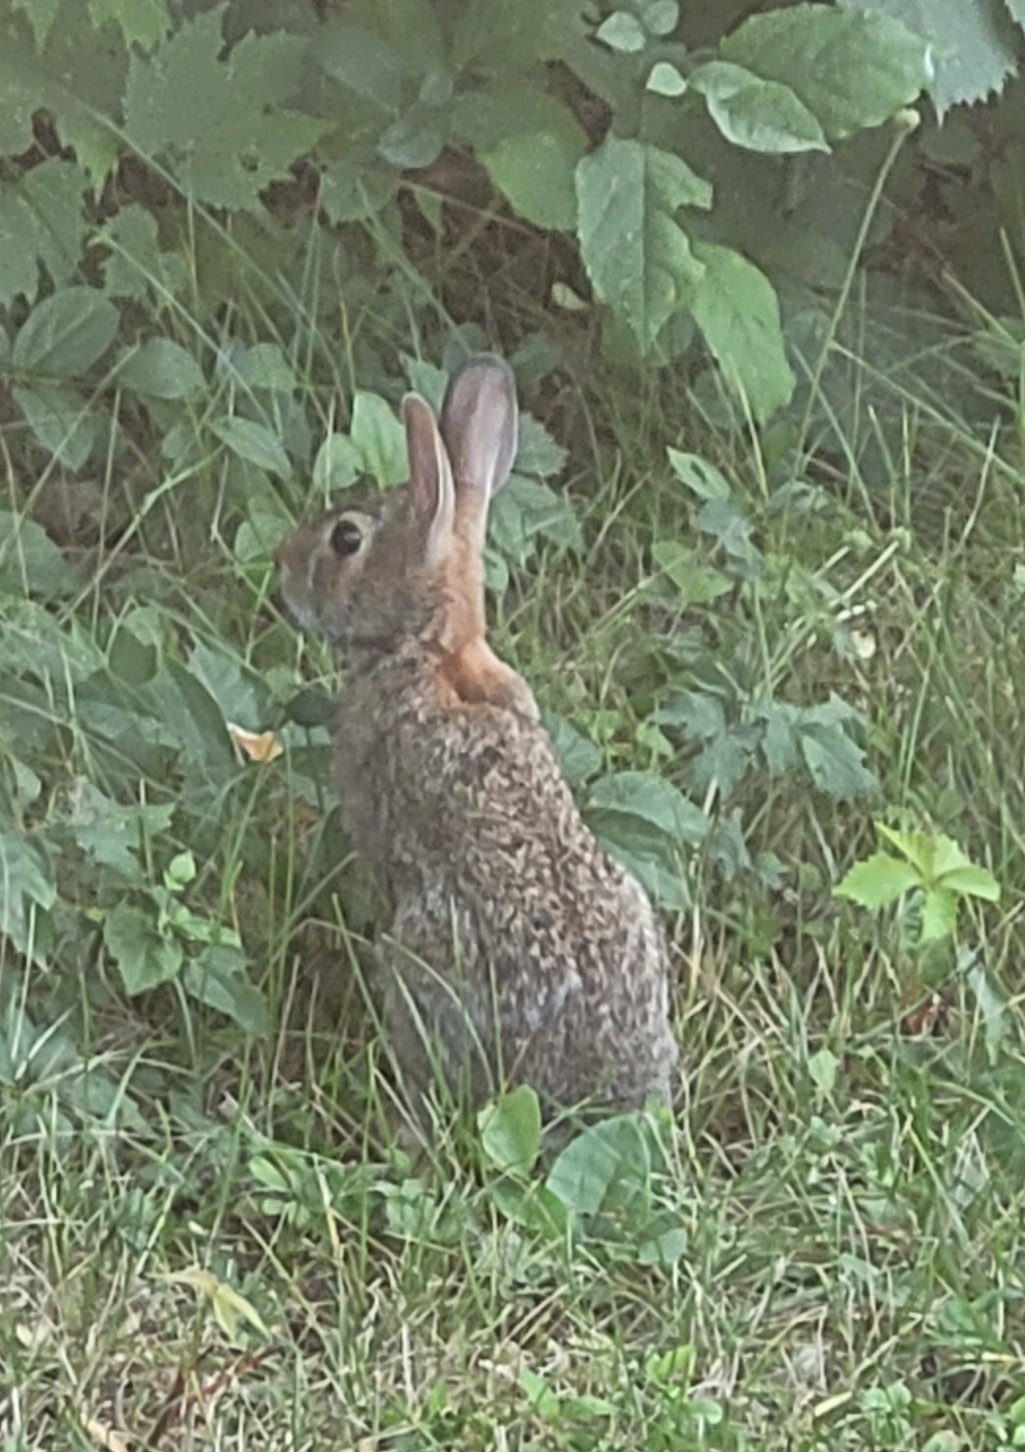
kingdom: Animalia
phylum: Chordata
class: Mammalia
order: Lagomorpha
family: Leporidae
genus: Sylvilagus
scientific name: Sylvilagus floridanus
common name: Eastern cottontail
